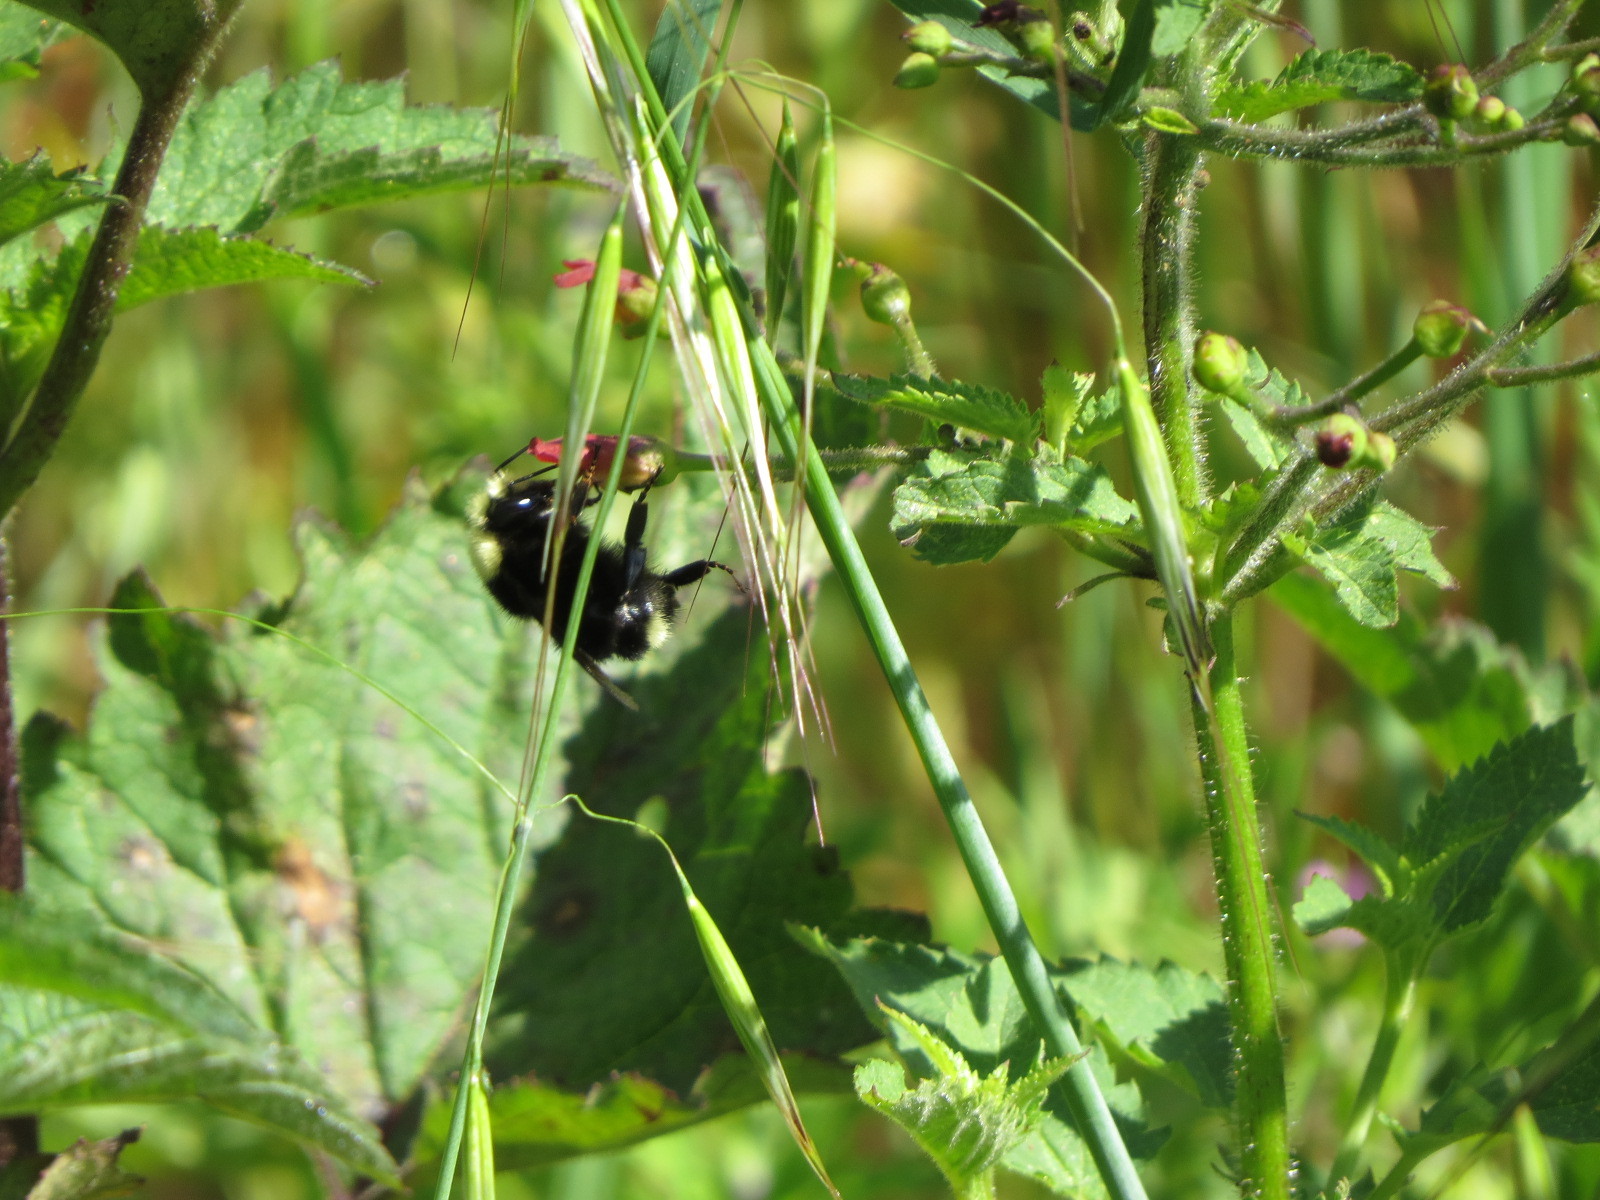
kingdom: Animalia
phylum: Arthropoda
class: Insecta
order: Hymenoptera
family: Apidae
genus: Pyrobombus
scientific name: Pyrobombus
